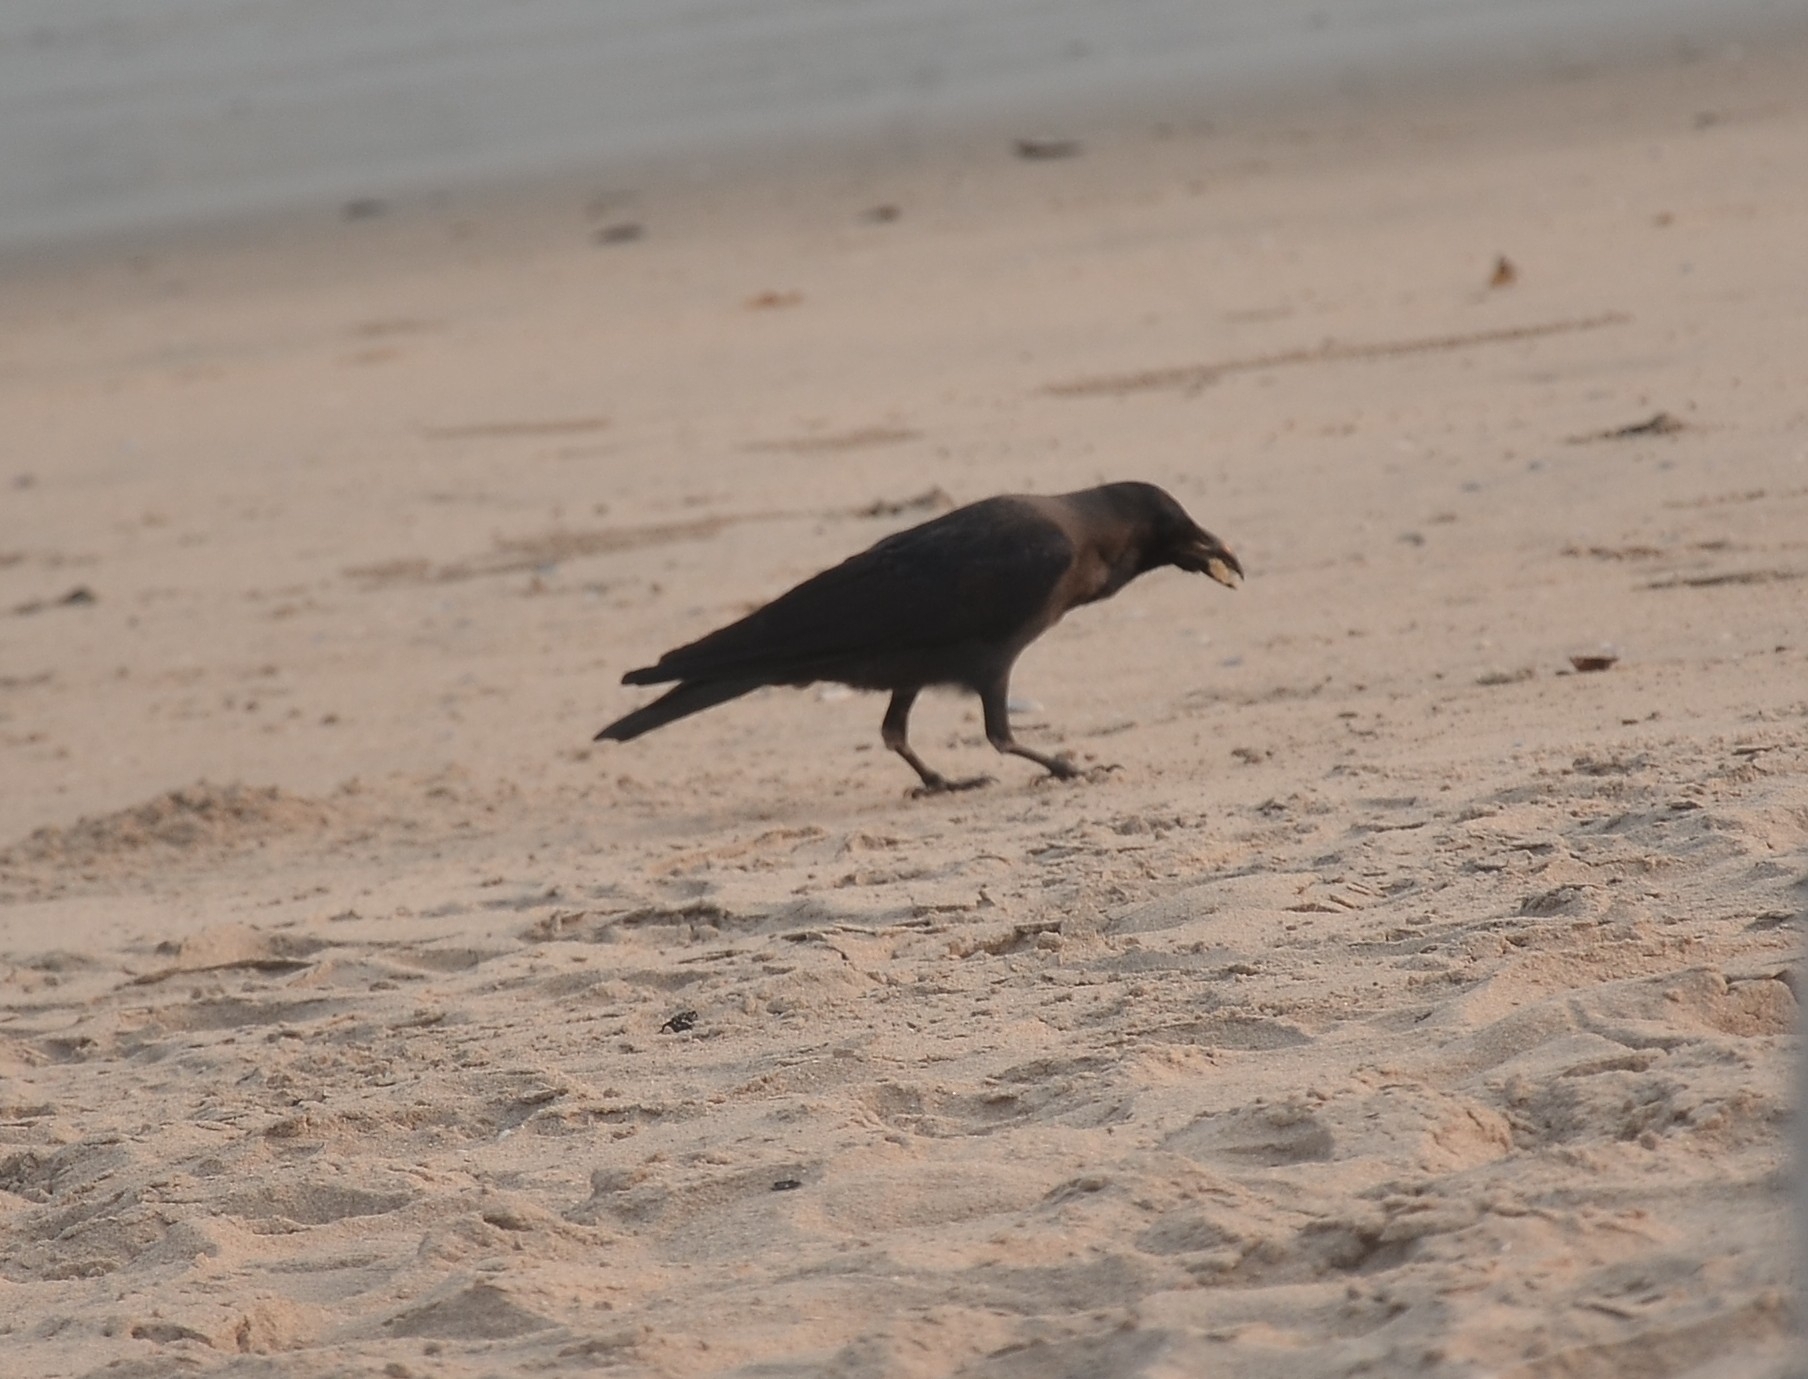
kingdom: Animalia
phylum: Chordata
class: Aves
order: Passeriformes
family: Corvidae
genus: Corvus
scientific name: Corvus splendens
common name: House crow
